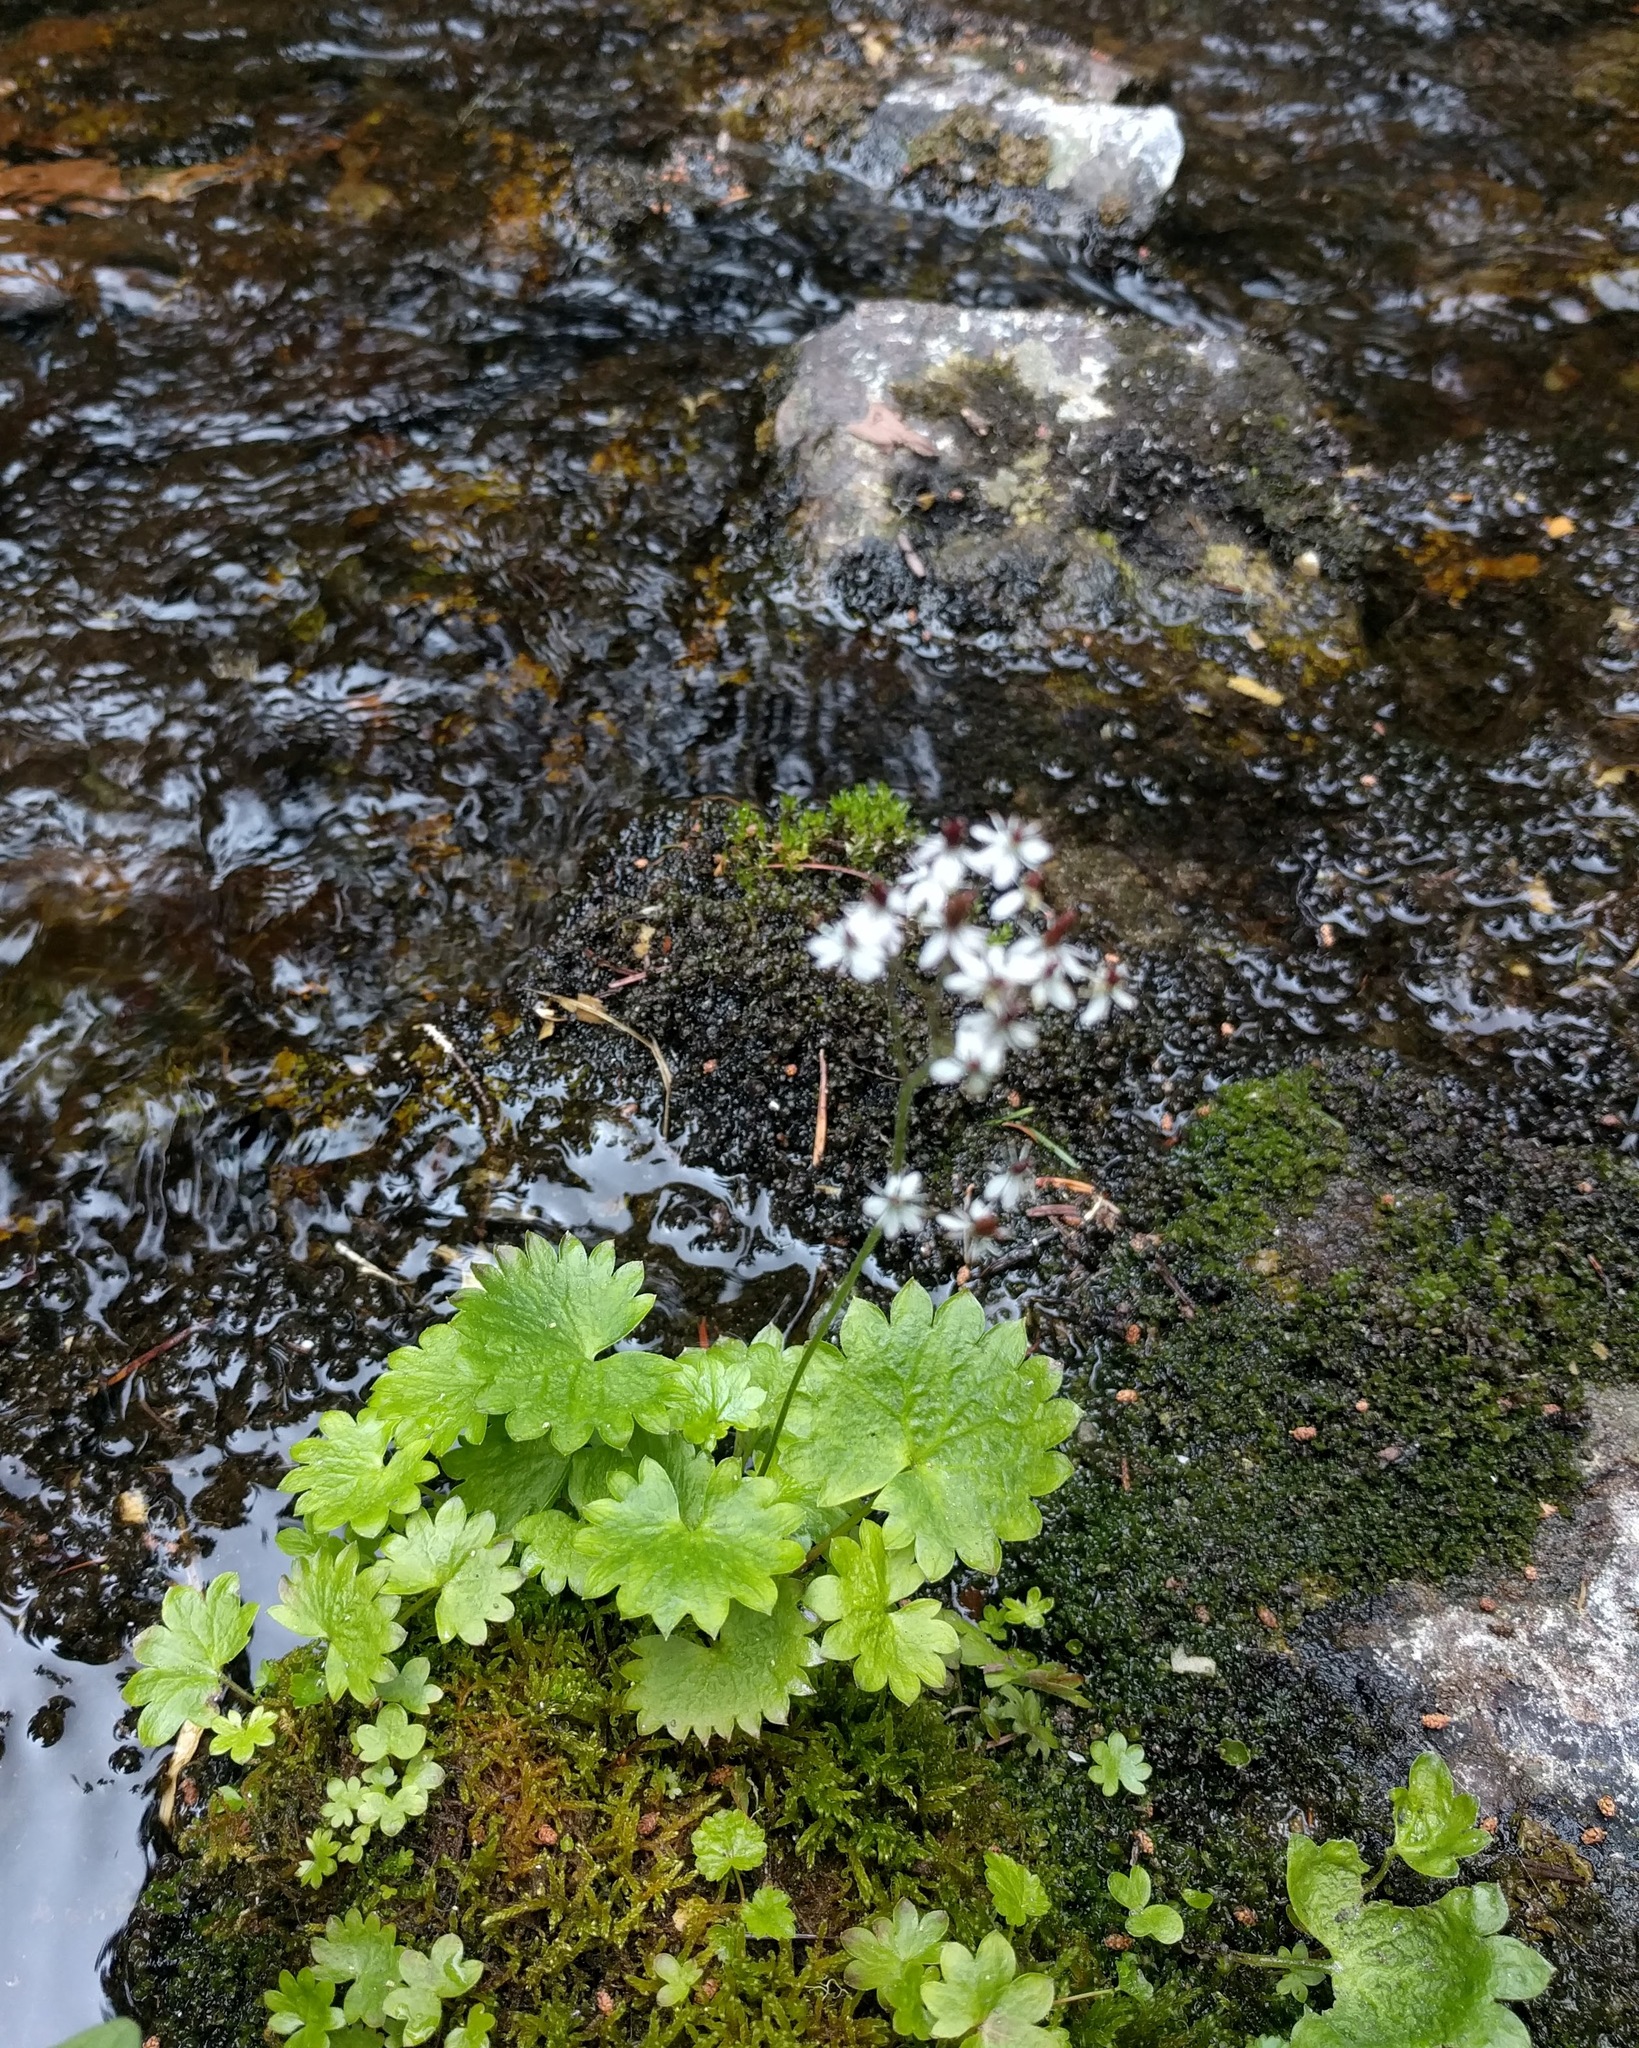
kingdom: Plantae
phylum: Tracheophyta
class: Magnoliopsida
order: Saxifragales
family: Saxifragaceae
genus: Micranthes
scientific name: Micranthes odontoloma
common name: Brook saxifrage
